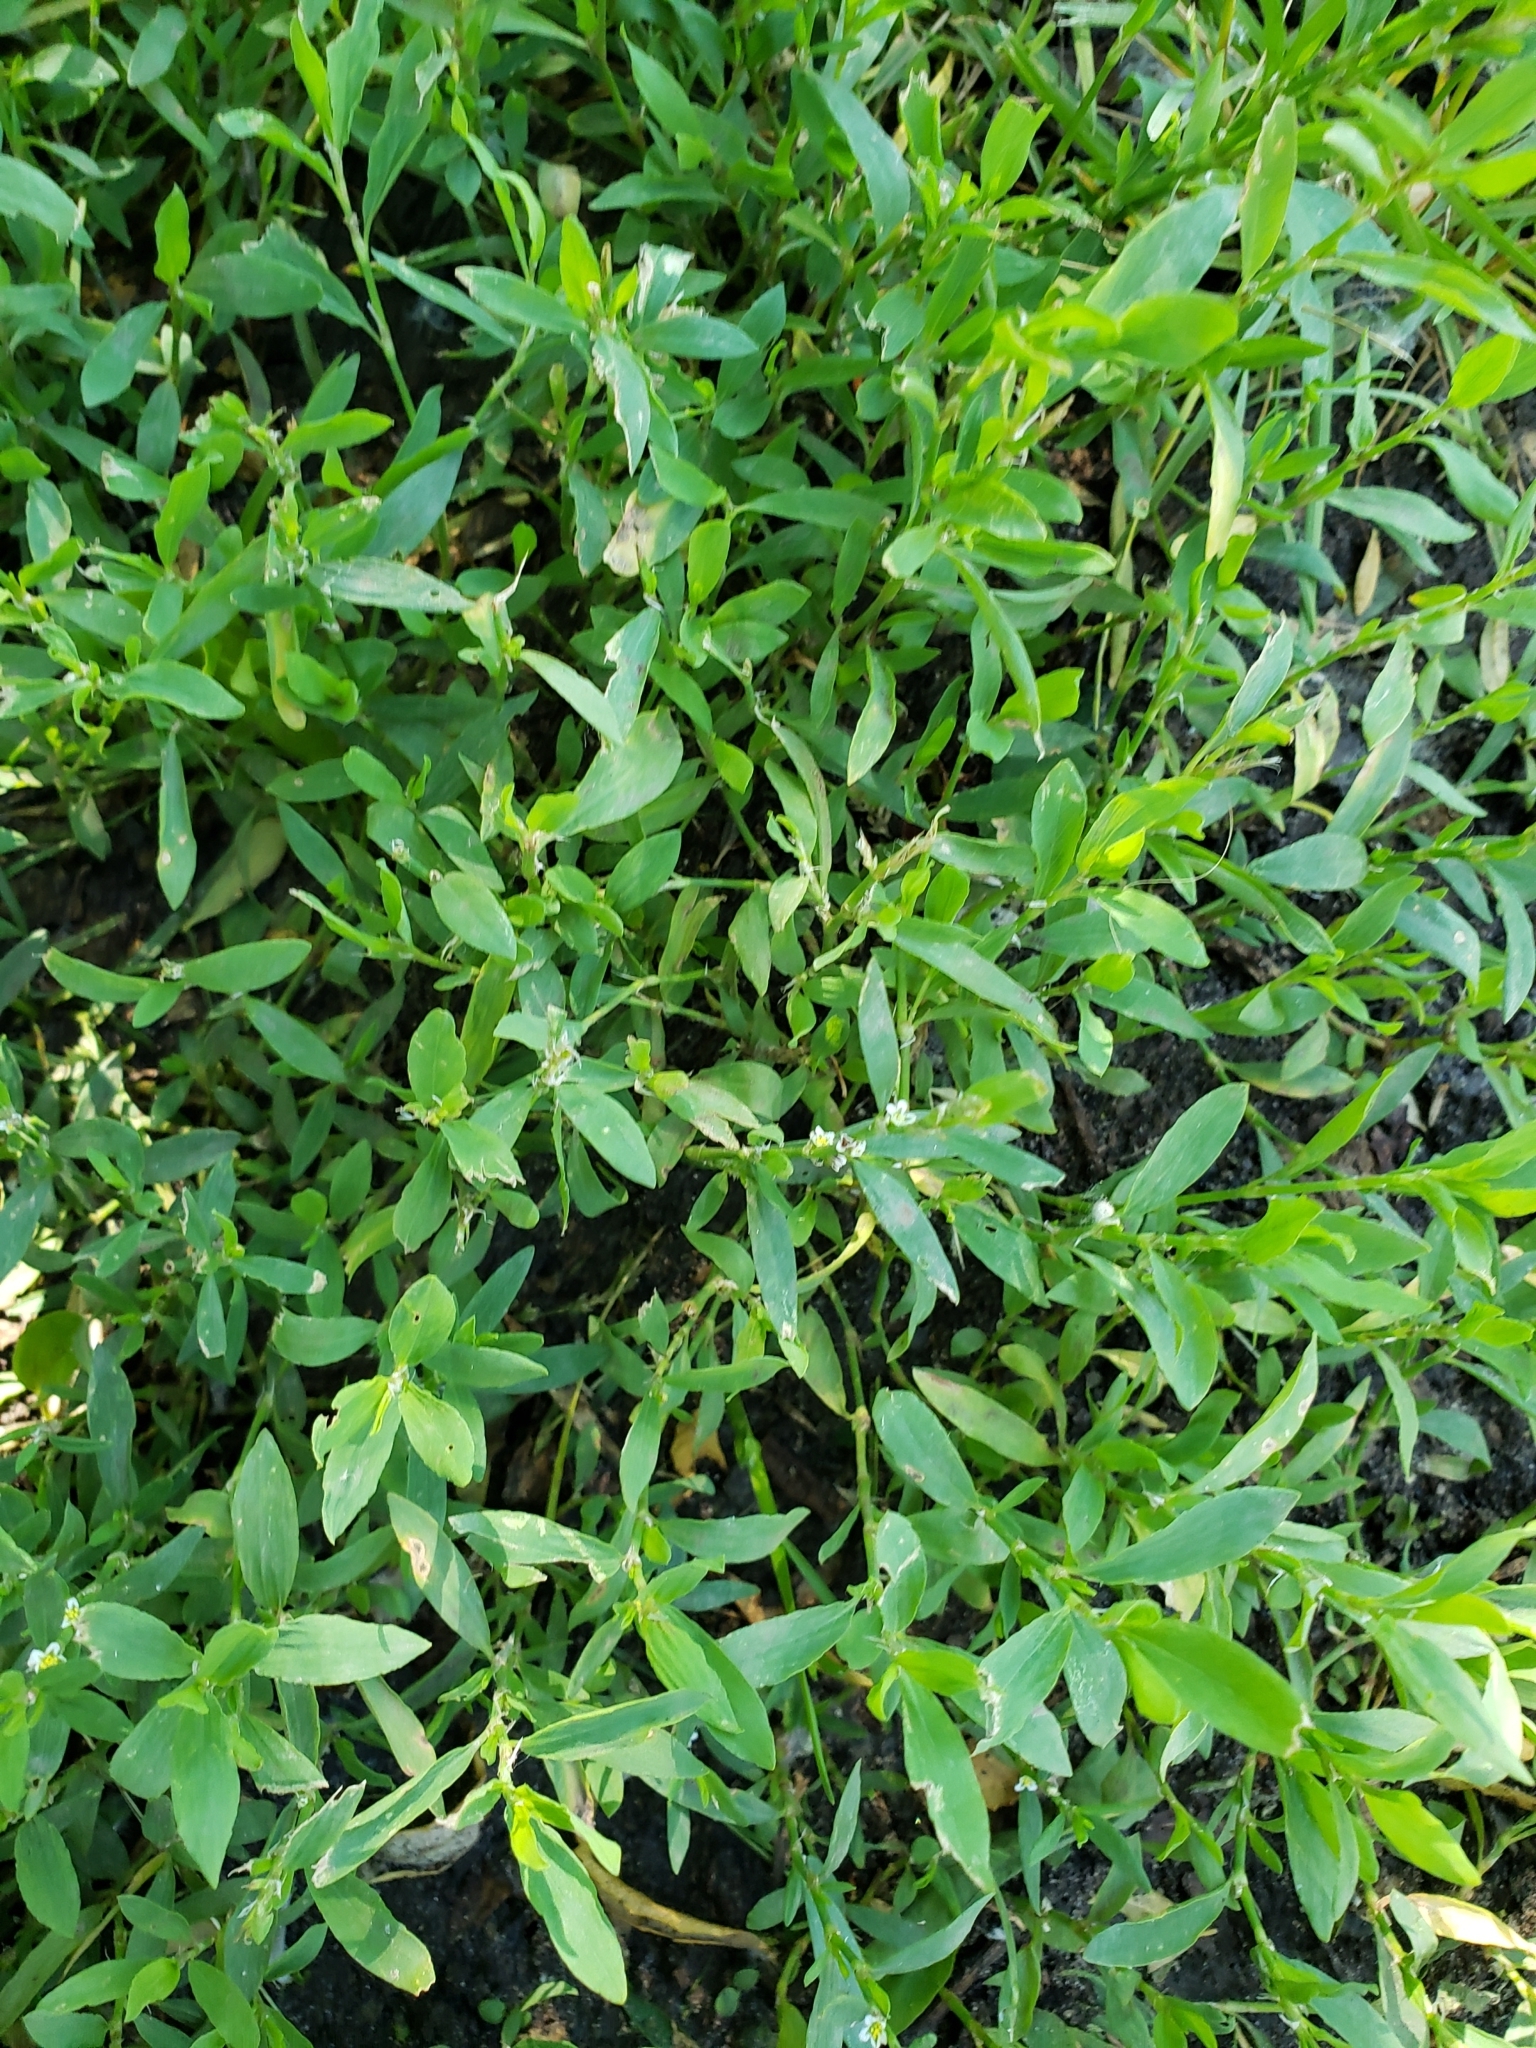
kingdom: Plantae
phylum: Tracheophyta
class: Magnoliopsida
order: Caryophyllales
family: Polygonaceae
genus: Polygonum
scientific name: Polygonum aviculare
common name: Prostrate knotweed
